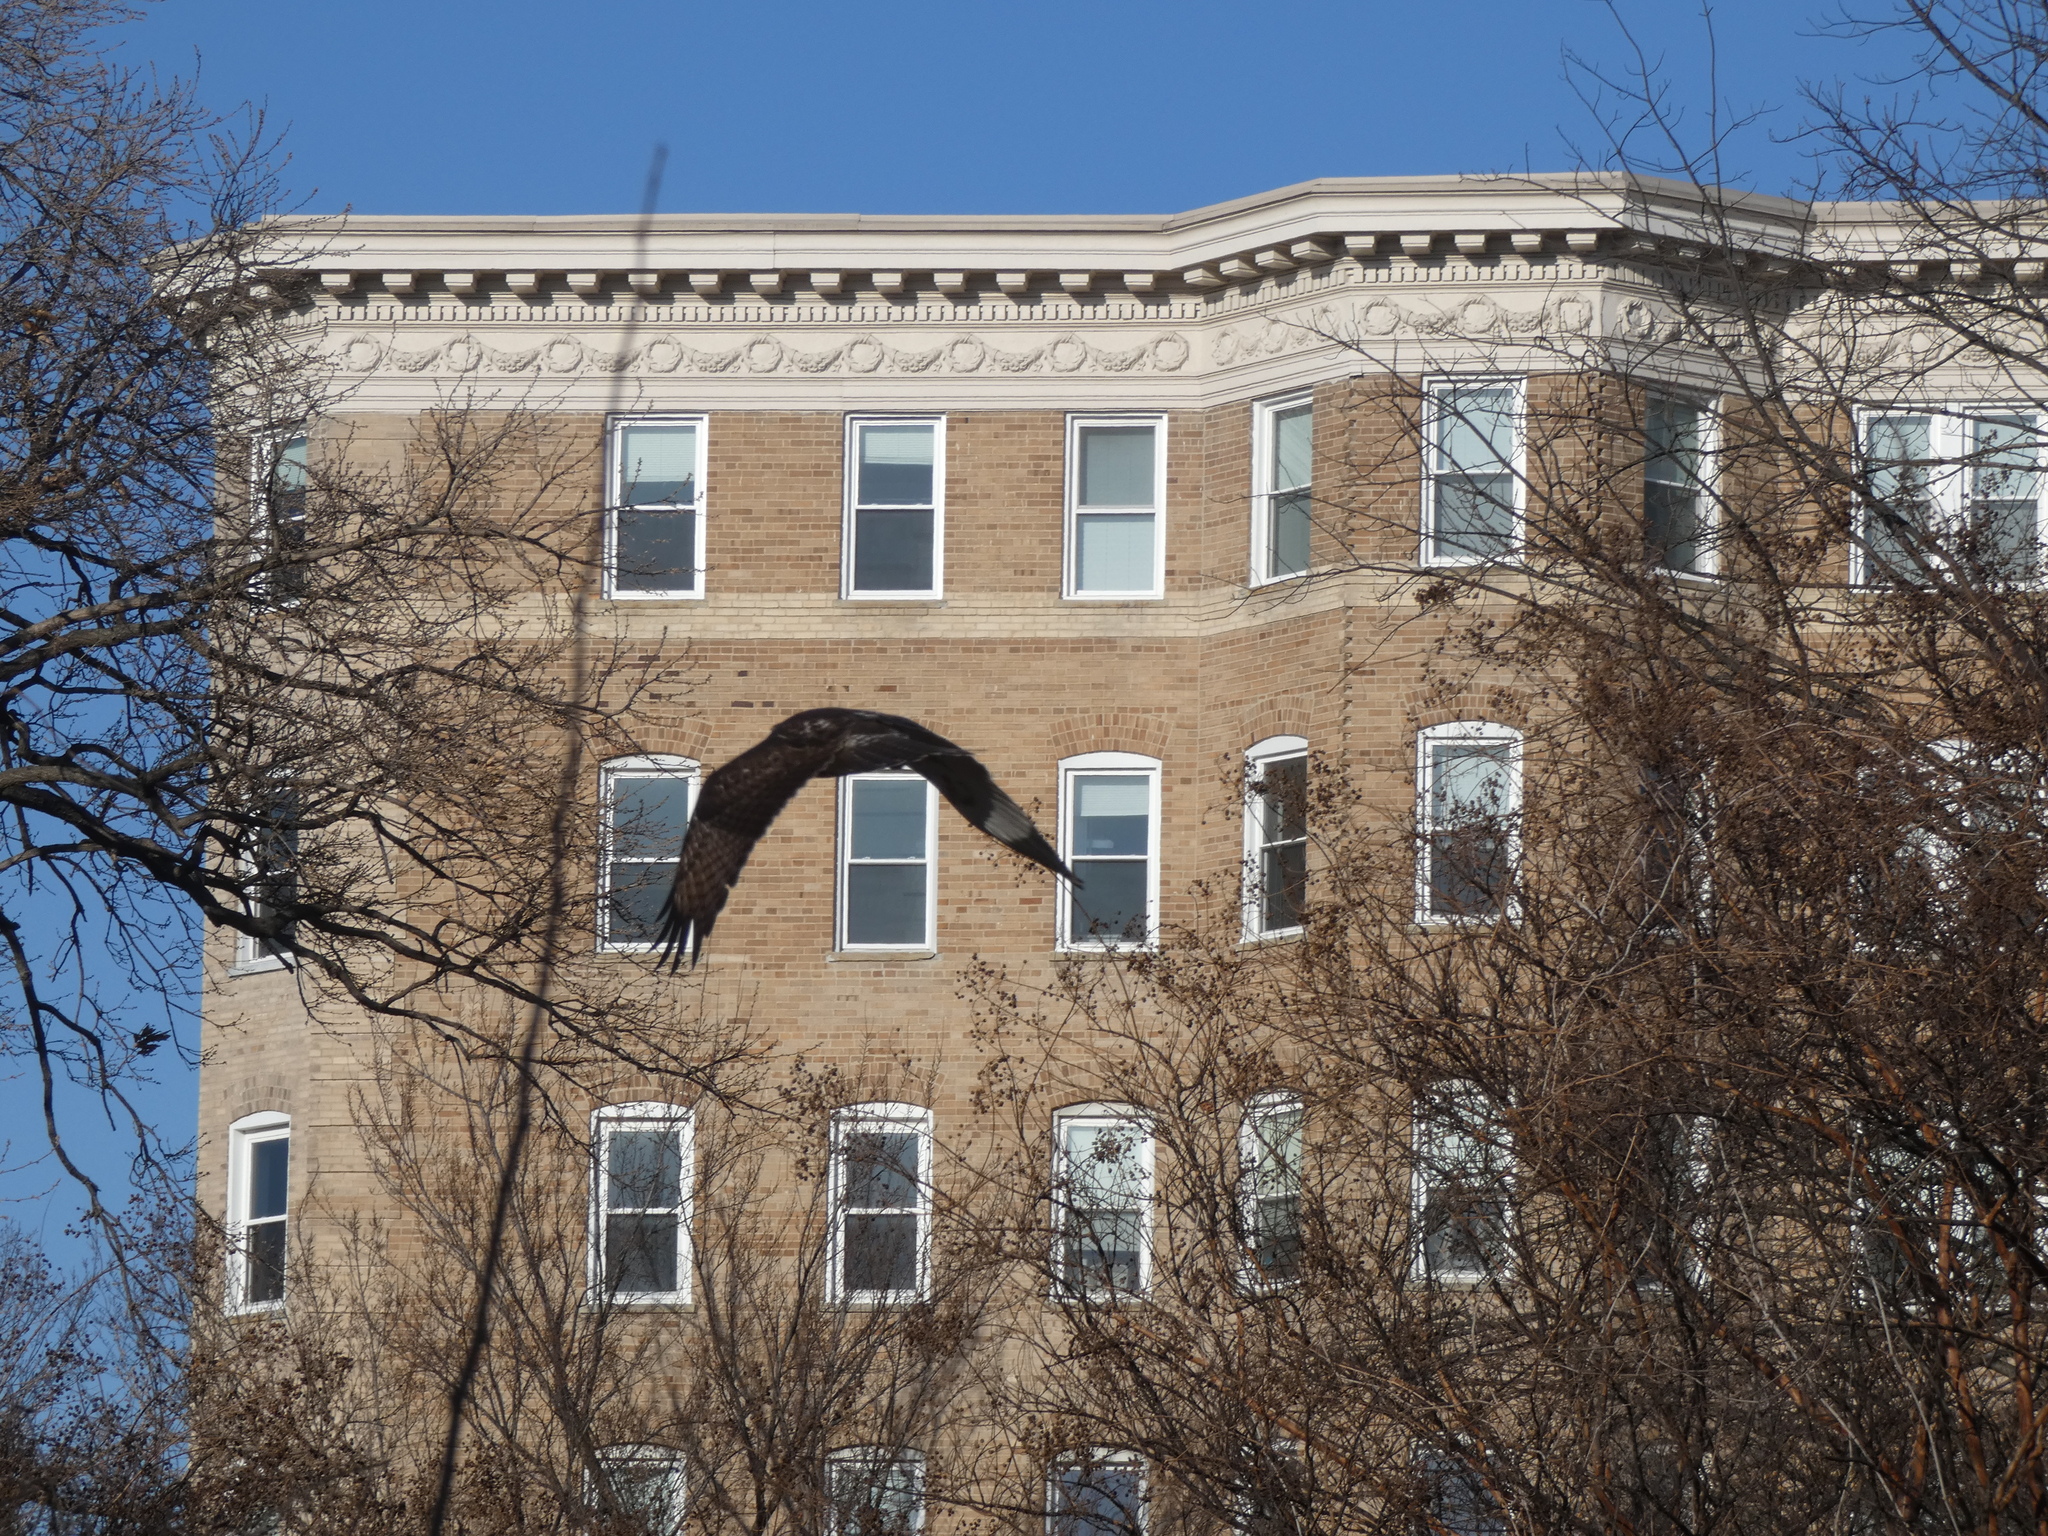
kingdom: Animalia
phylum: Chordata
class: Aves
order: Accipitriformes
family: Accipitridae
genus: Buteo
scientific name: Buteo jamaicensis
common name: Red-tailed hawk
